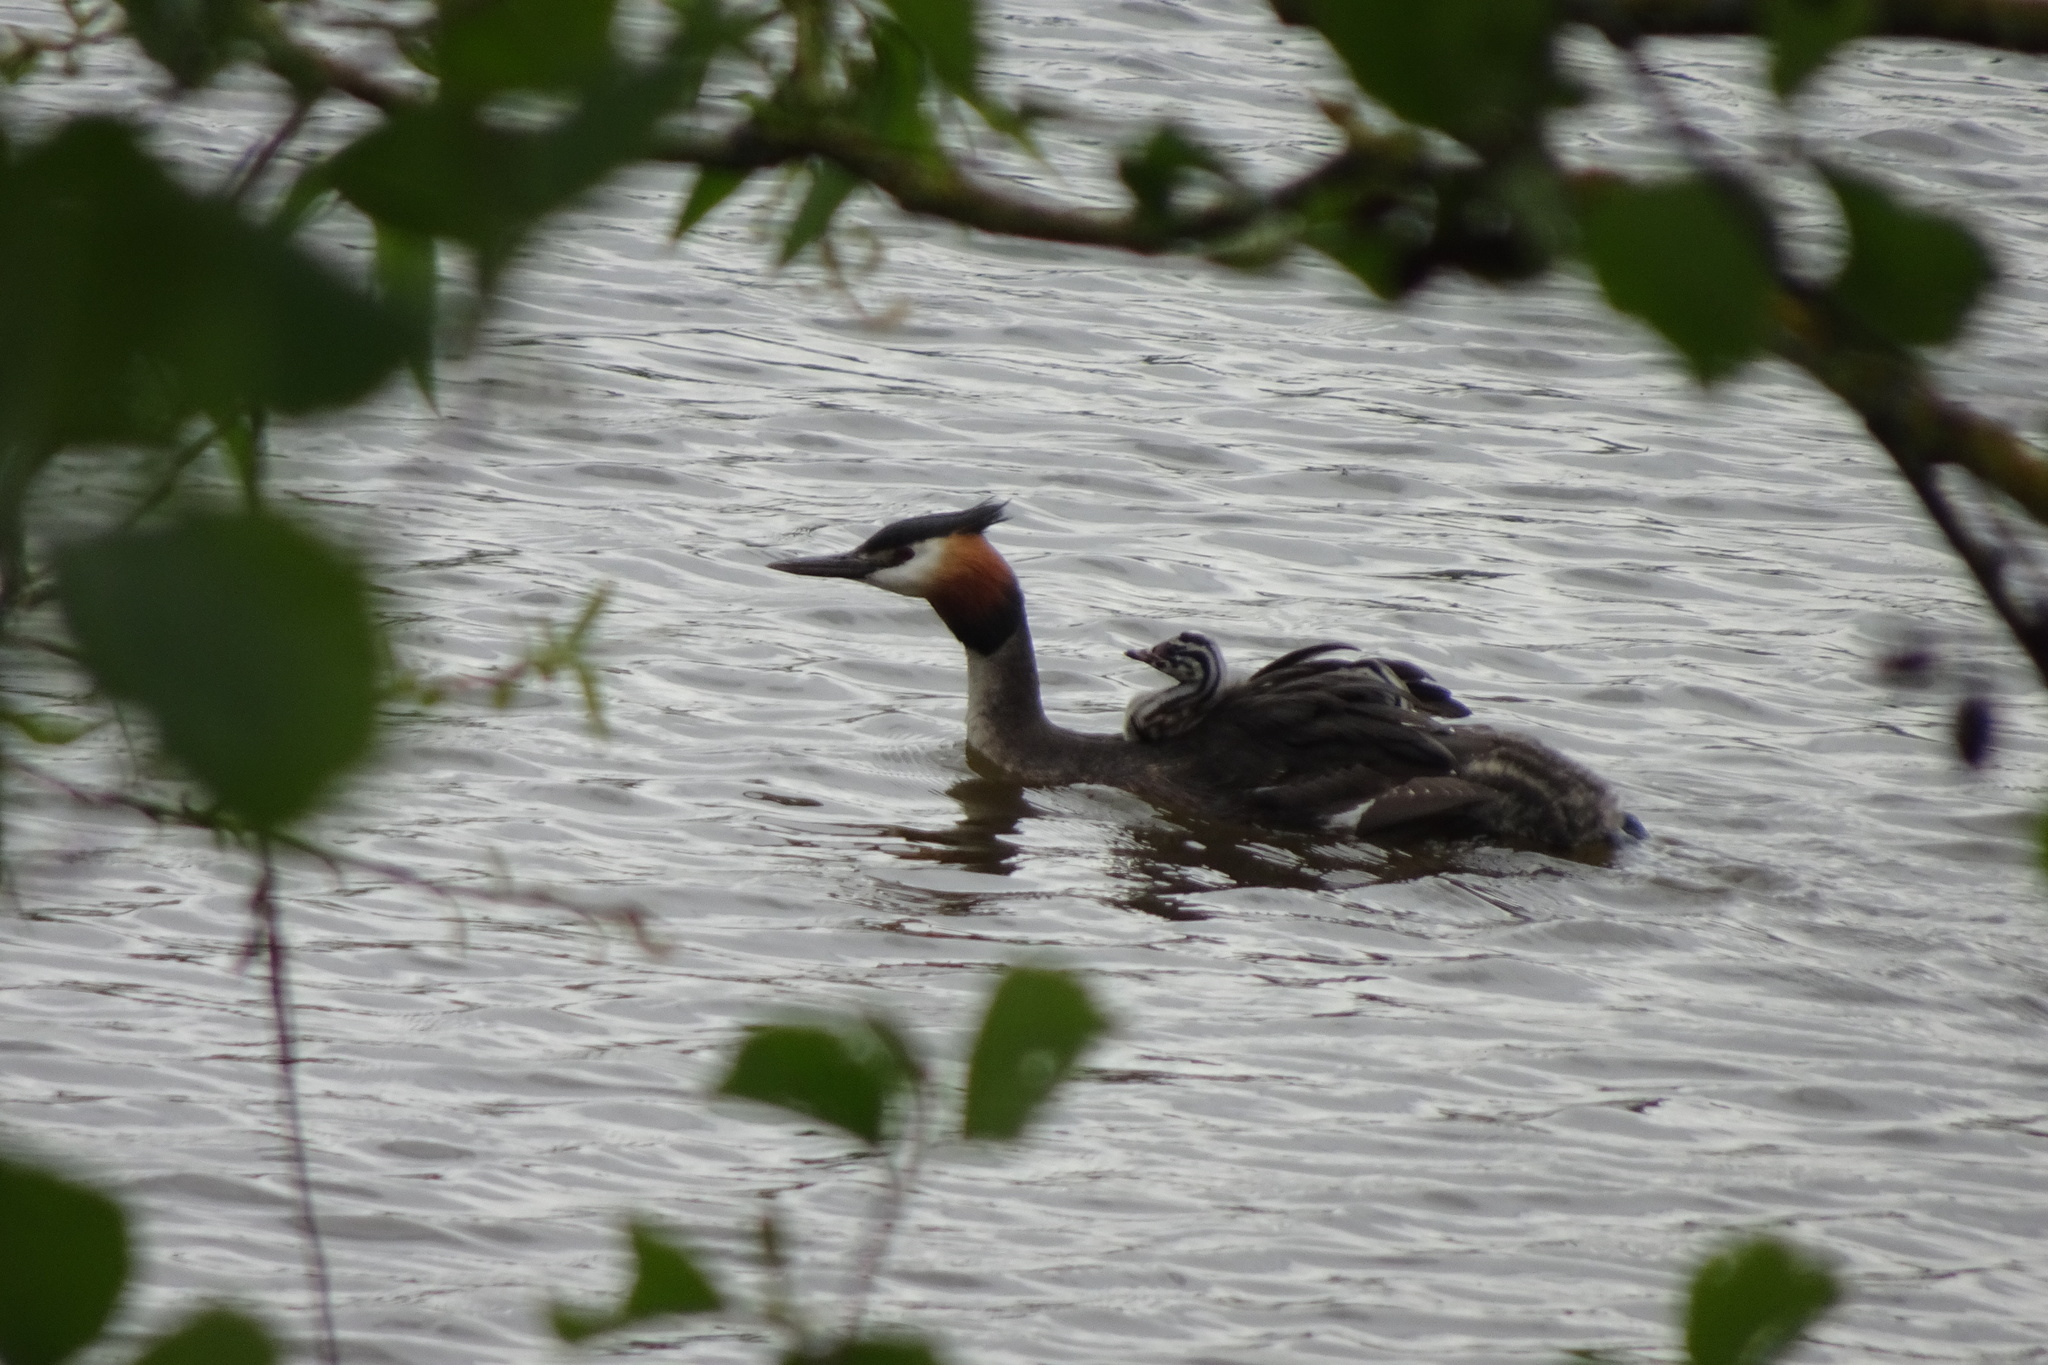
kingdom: Animalia
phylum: Chordata
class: Aves
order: Podicipediformes
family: Podicipedidae
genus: Podiceps
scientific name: Podiceps cristatus
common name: Great crested grebe
